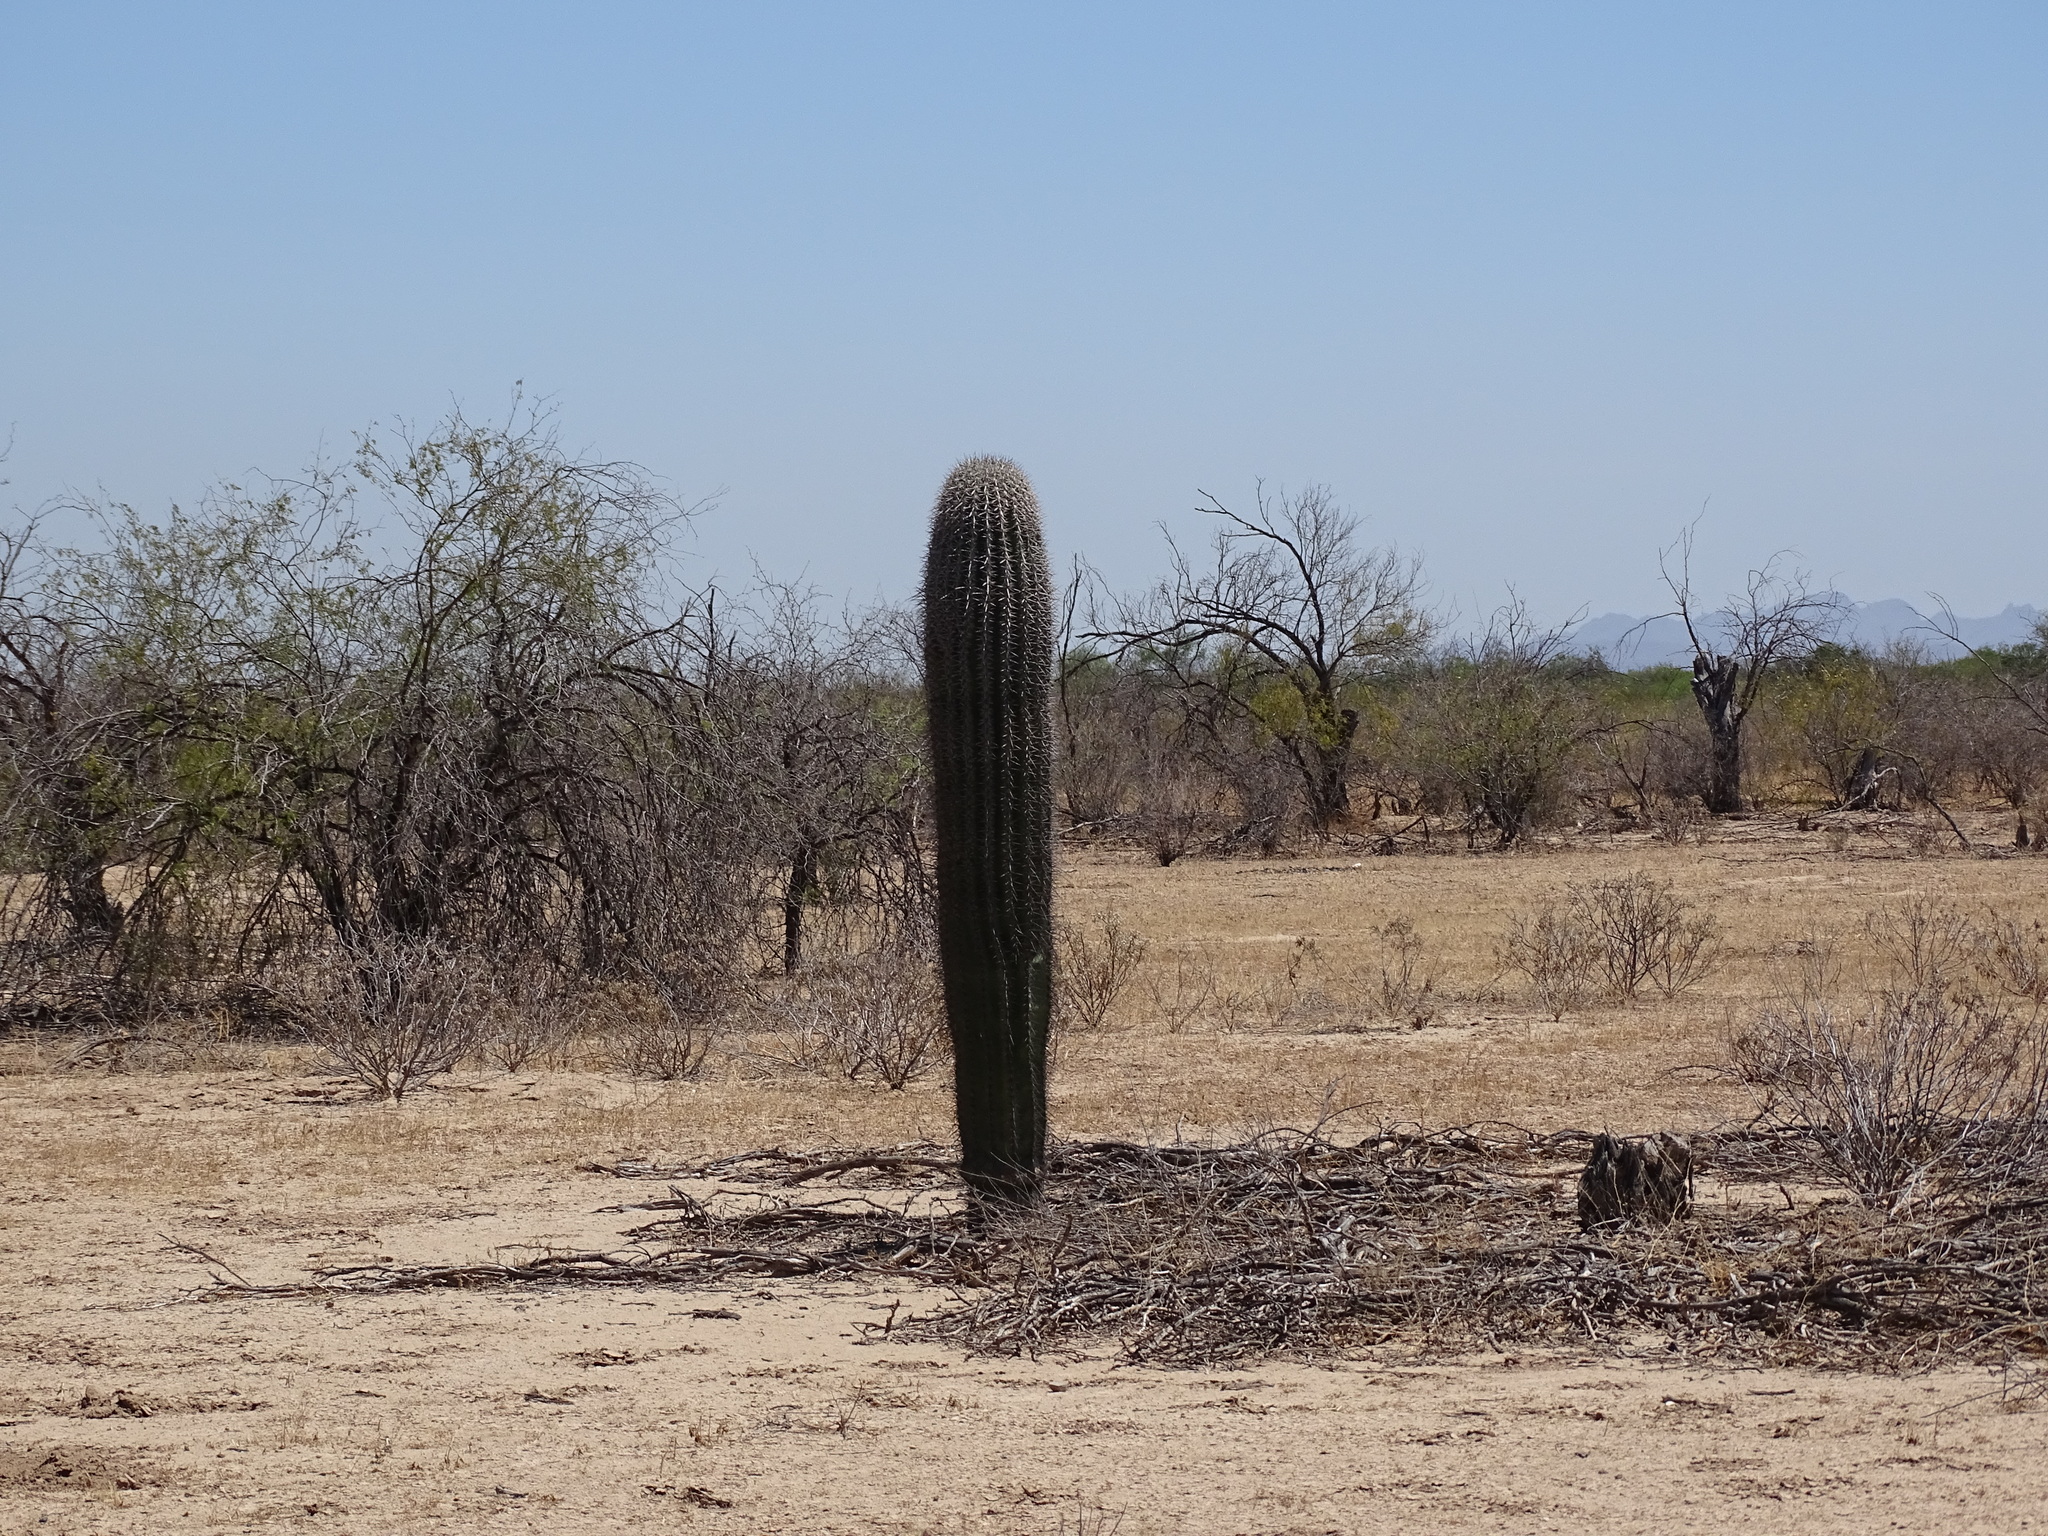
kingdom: Plantae
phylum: Tracheophyta
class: Magnoliopsida
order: Caryophyllales
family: Cactaceae
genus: Carnegiea
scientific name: Carnegiea gigantea
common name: Saguaro
